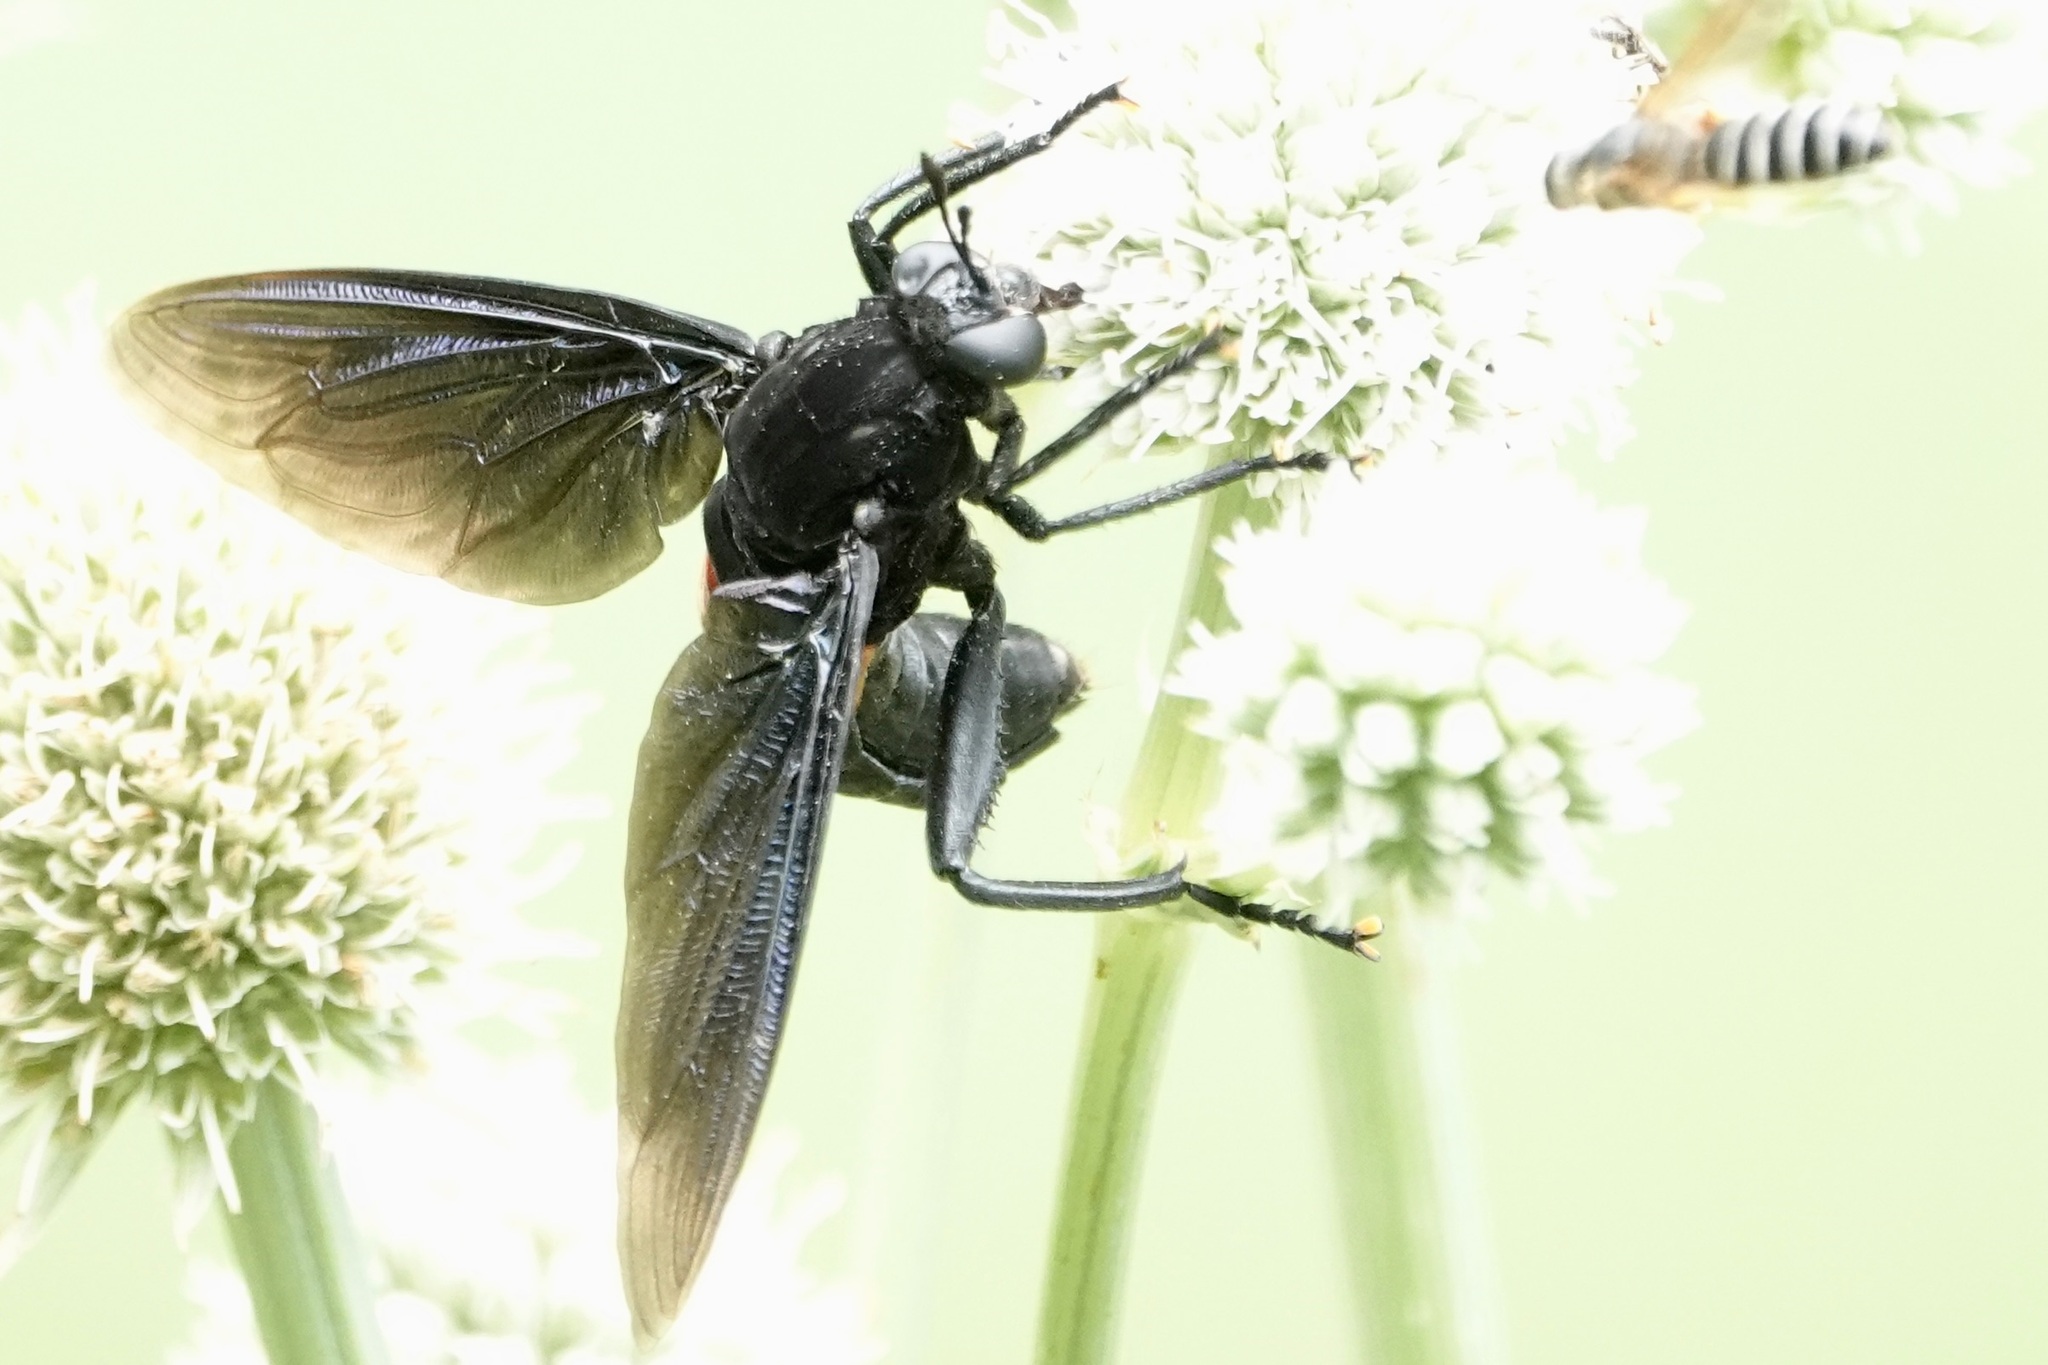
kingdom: Animalia
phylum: Arthropoda
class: Insecta
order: Diptera
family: Mydidae
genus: Mydas
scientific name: Mydas clavatus
